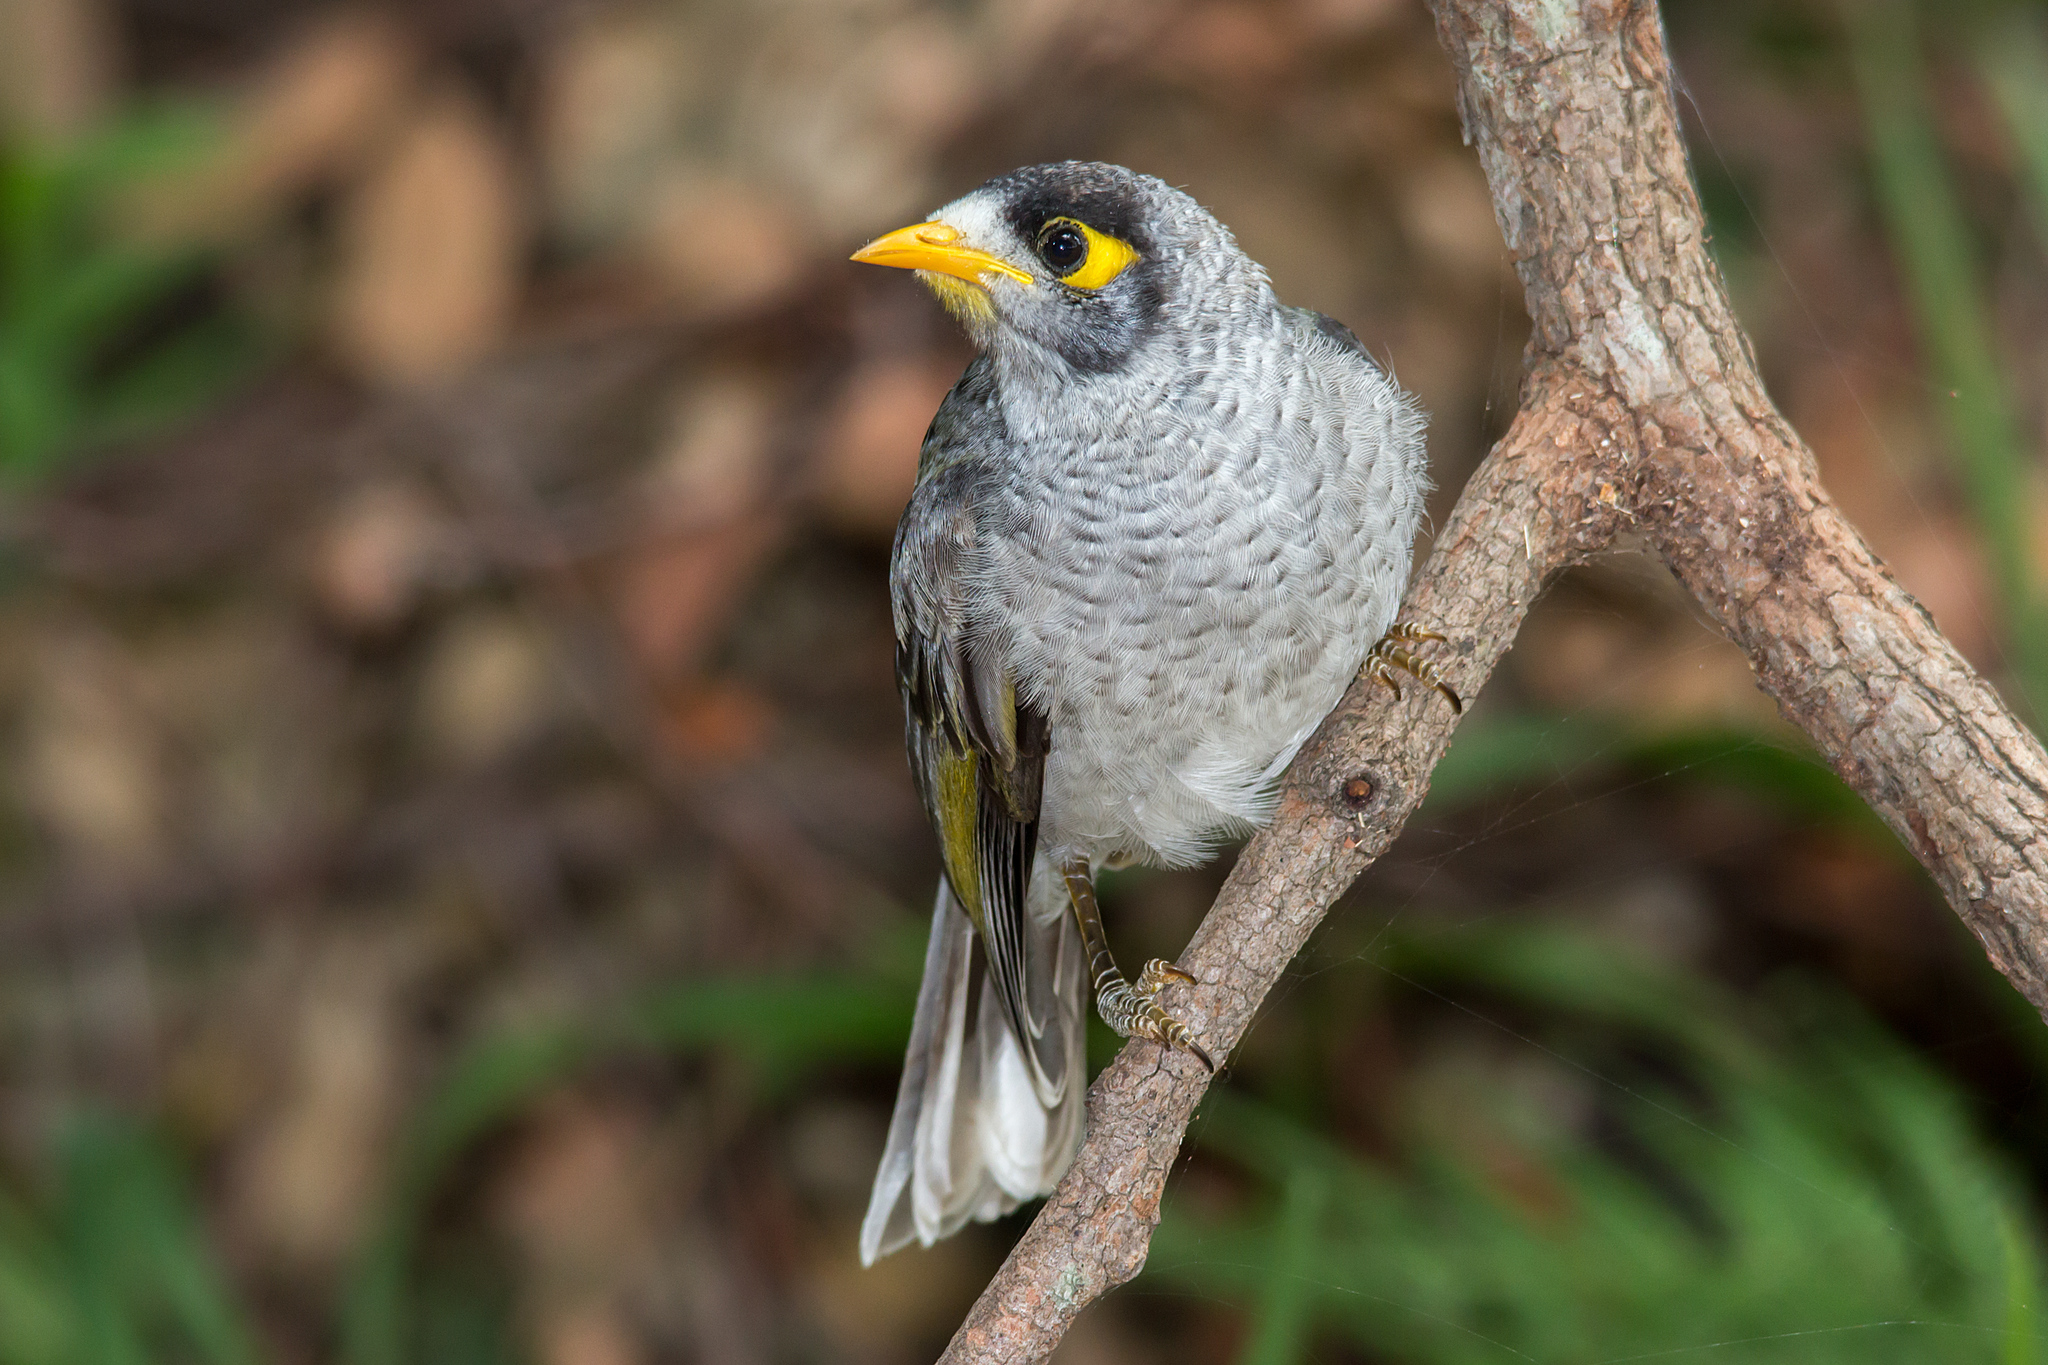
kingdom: Animalia
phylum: Chordata
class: Aves
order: Passeriformes
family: Meliphagidae
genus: Manorina
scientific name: Manorina melanocephala
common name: Noisy miner
